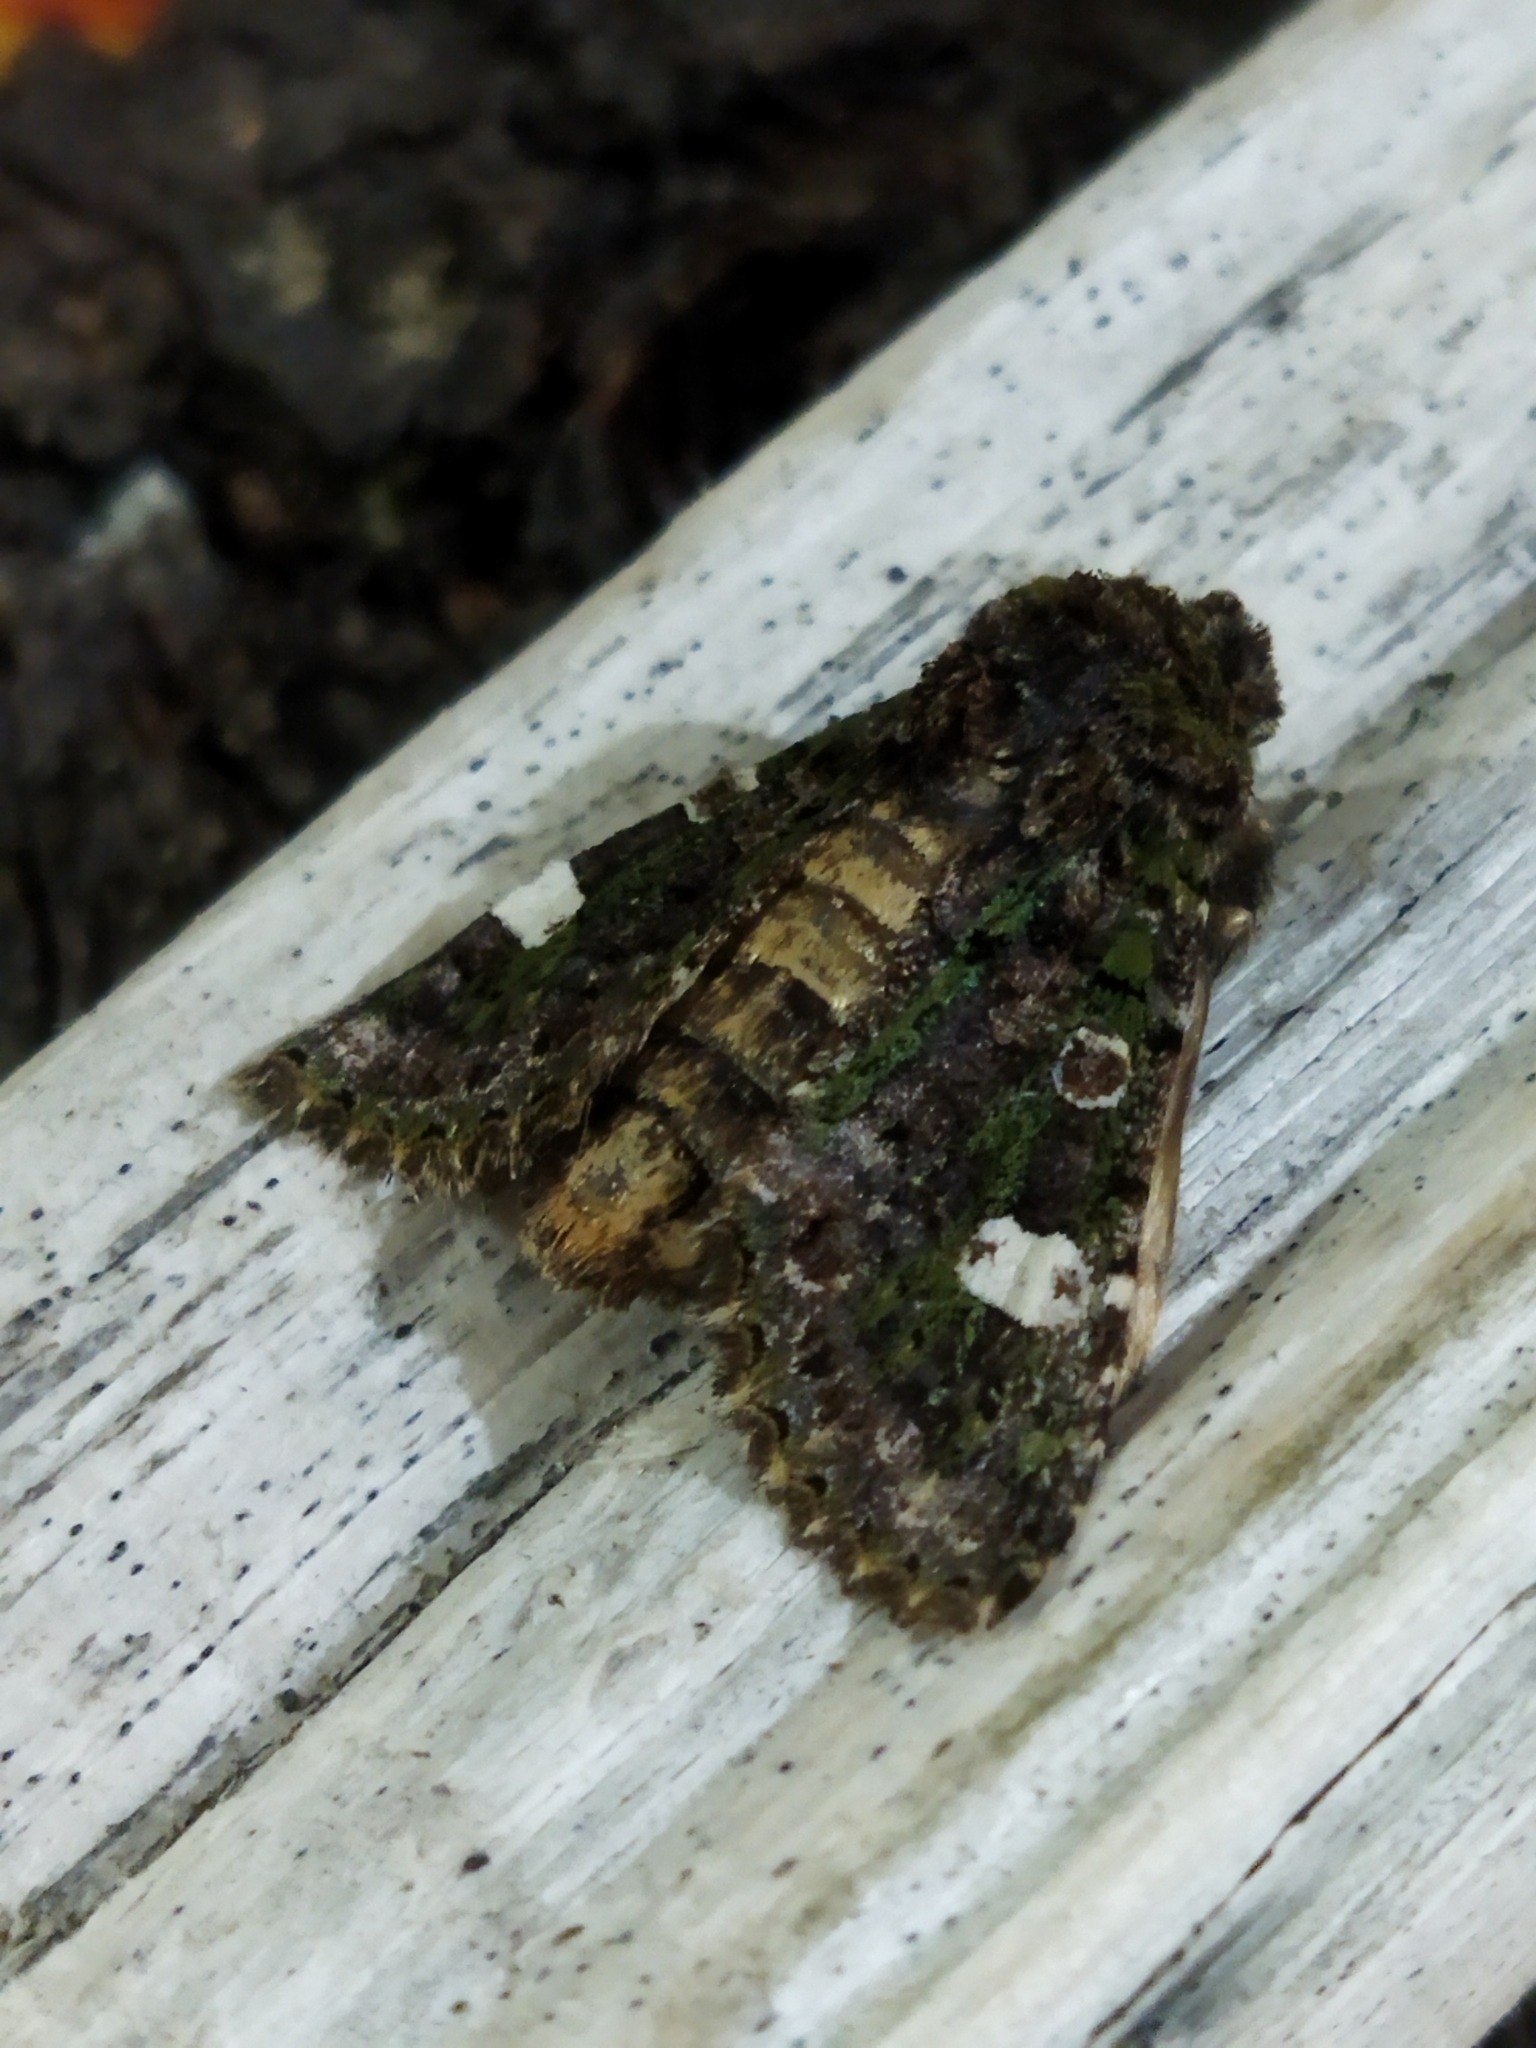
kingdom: Animalia
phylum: Arthropoda
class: Insecta
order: Lepidoptera
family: Noctuidae
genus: Valeria
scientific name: Valeria oleagina
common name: Green-brindled dot
